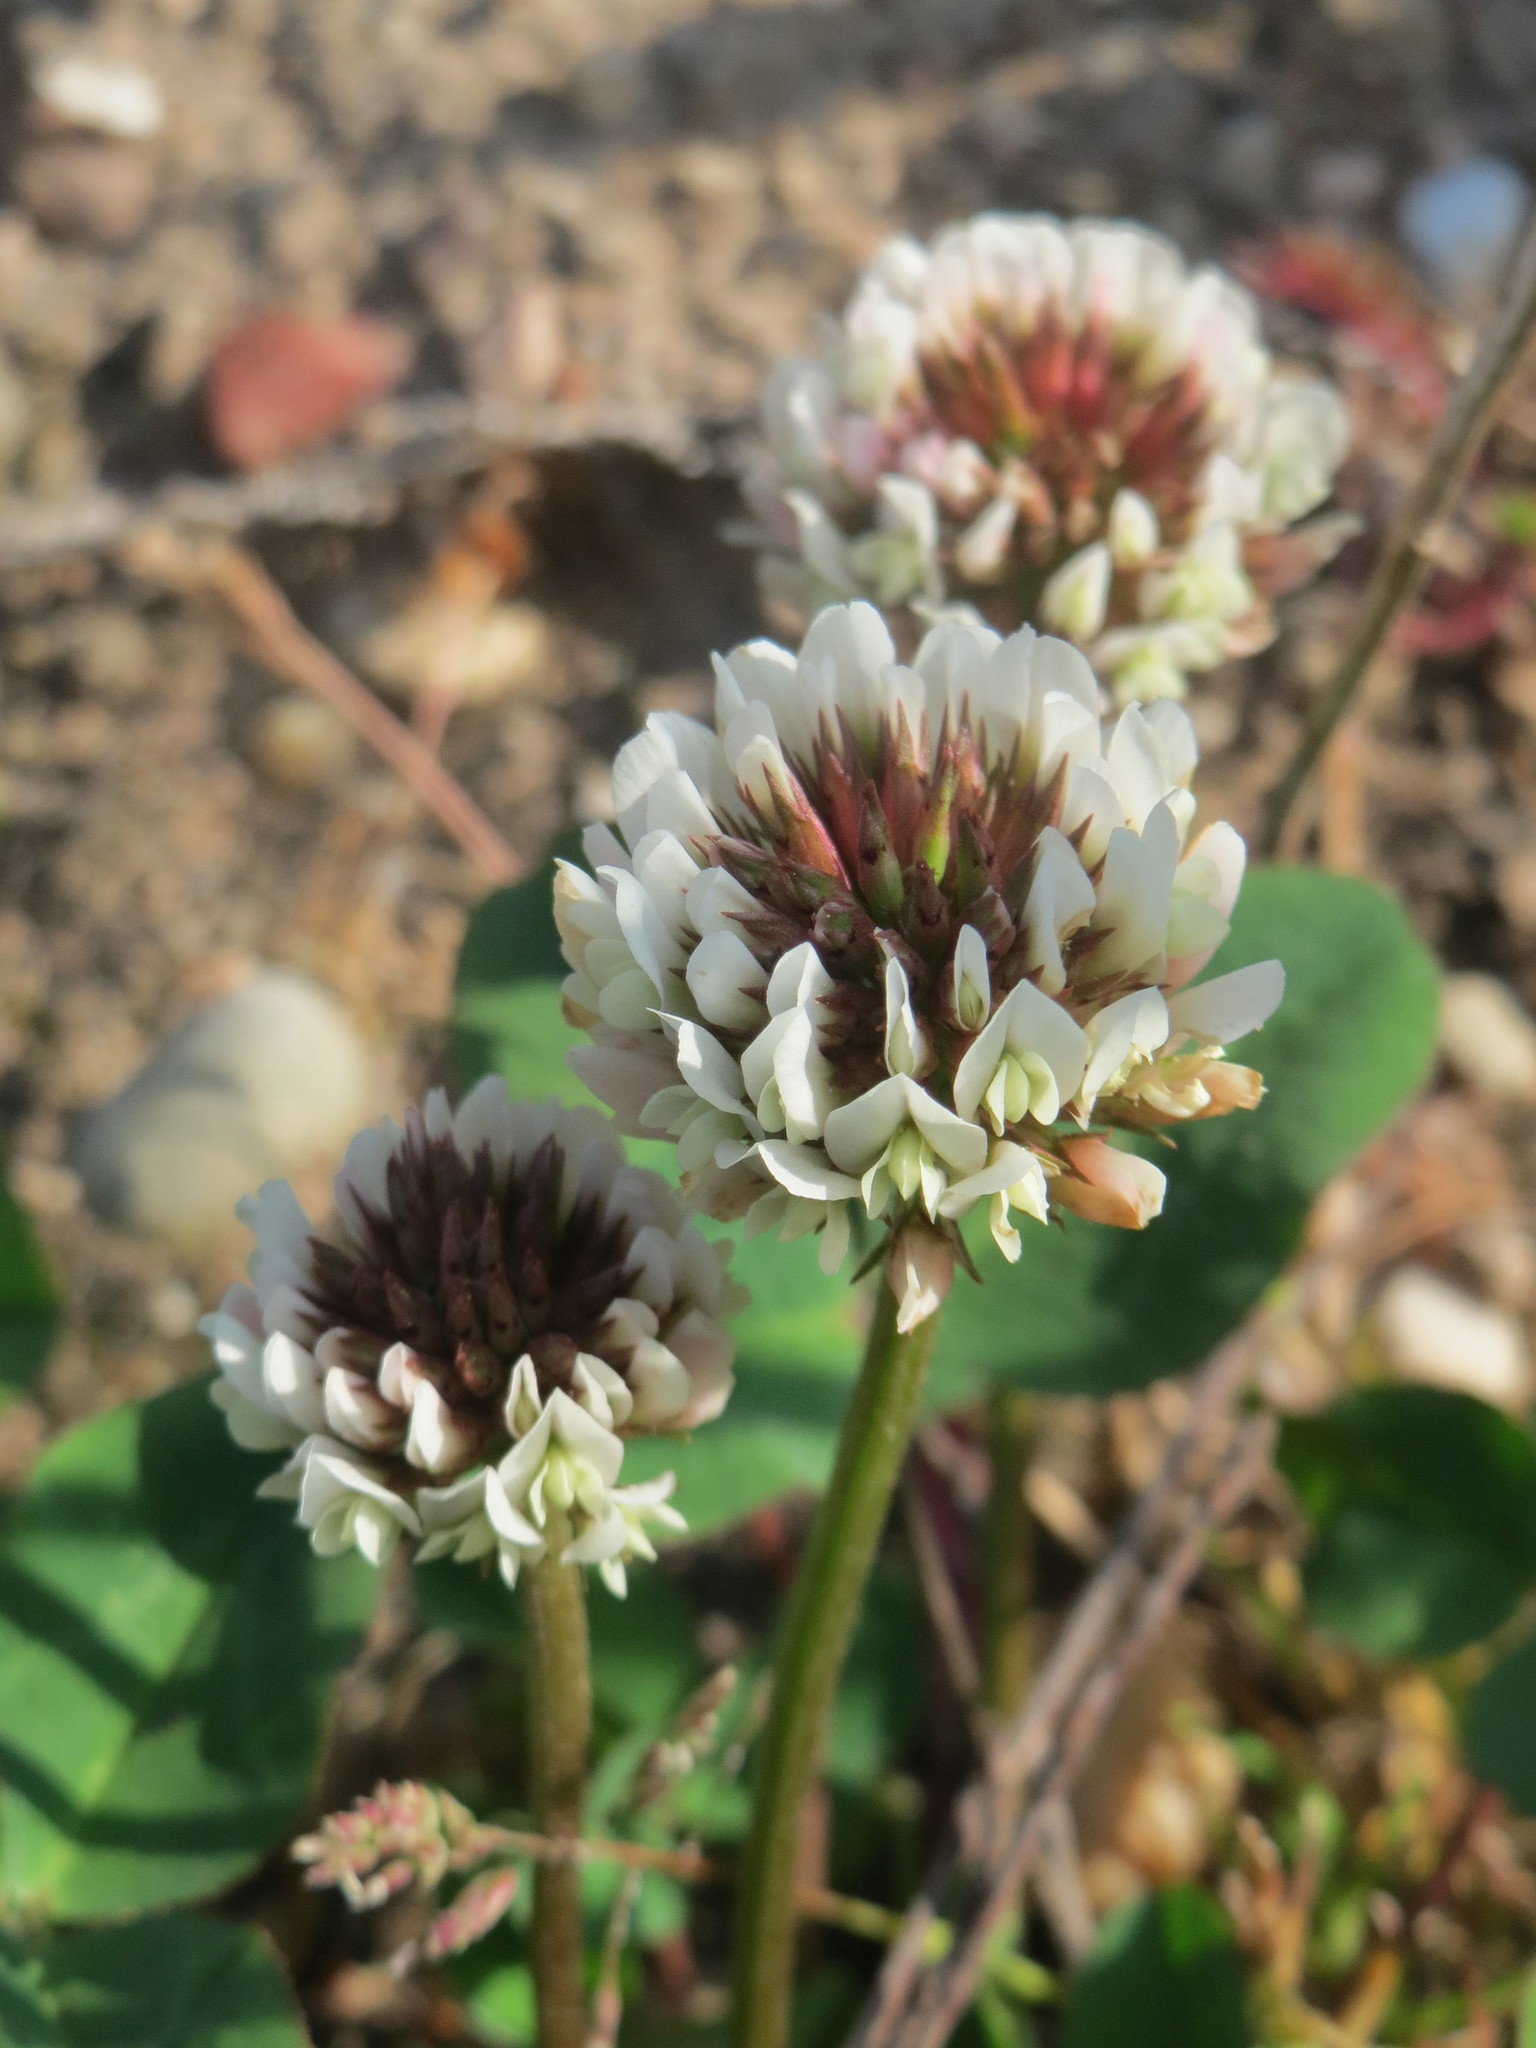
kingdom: Plantae
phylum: Tracheophyta
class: Magnoliopsida
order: Fabales
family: Fabaceae
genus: Trifolium
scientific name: Trifolium repens
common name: White clover
